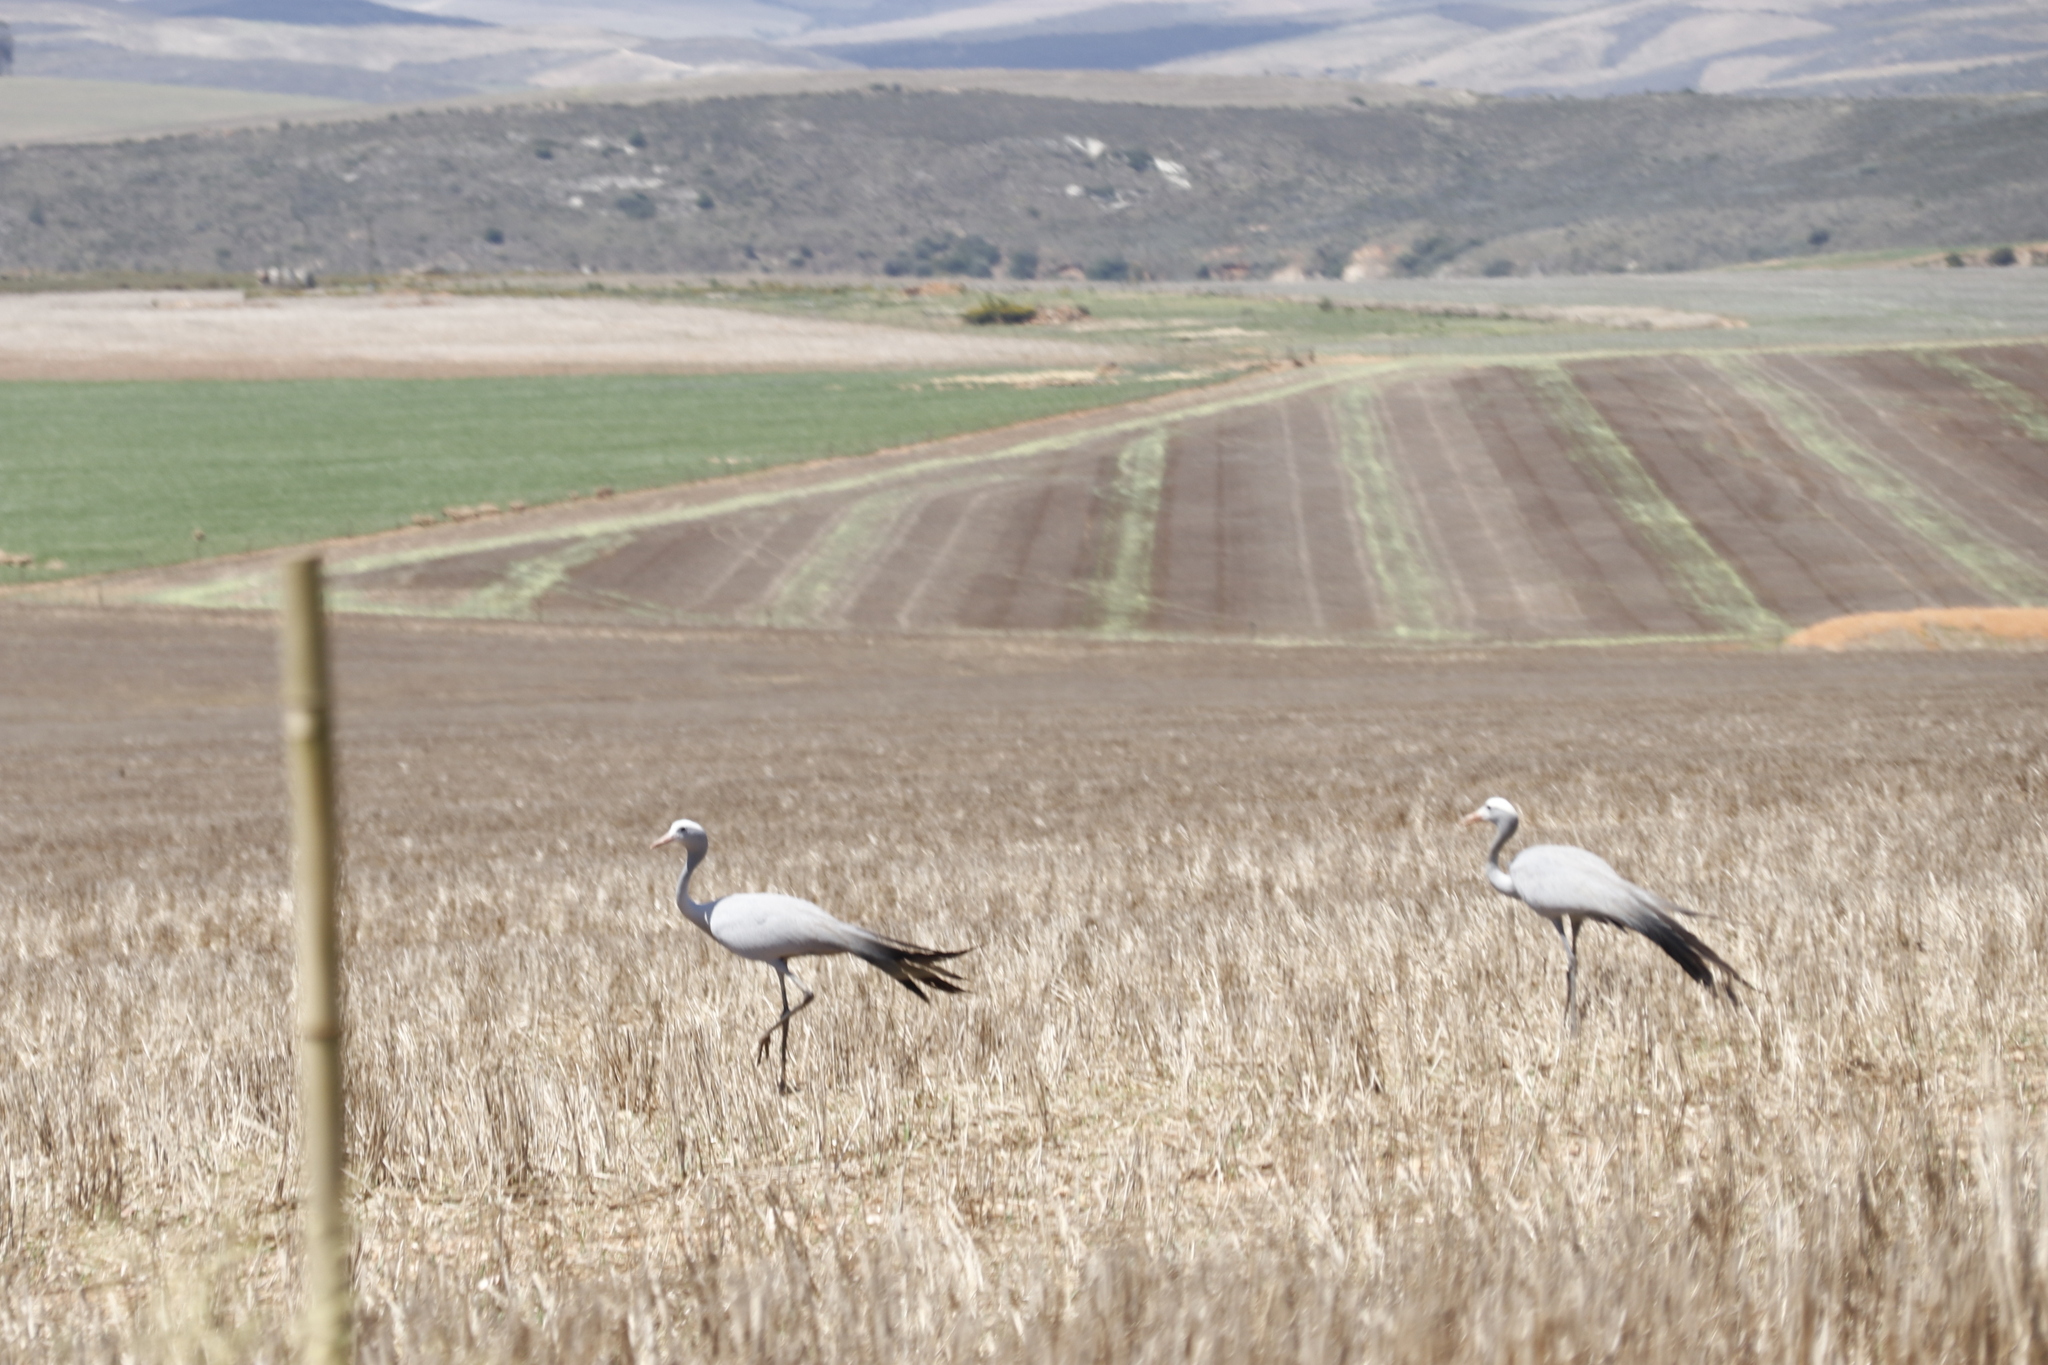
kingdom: Animalia
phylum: Chordata
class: Aves
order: Gruiformes
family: Gruidae
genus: Anthropoides
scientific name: Anthropoides paradiseus
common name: Blue crane
